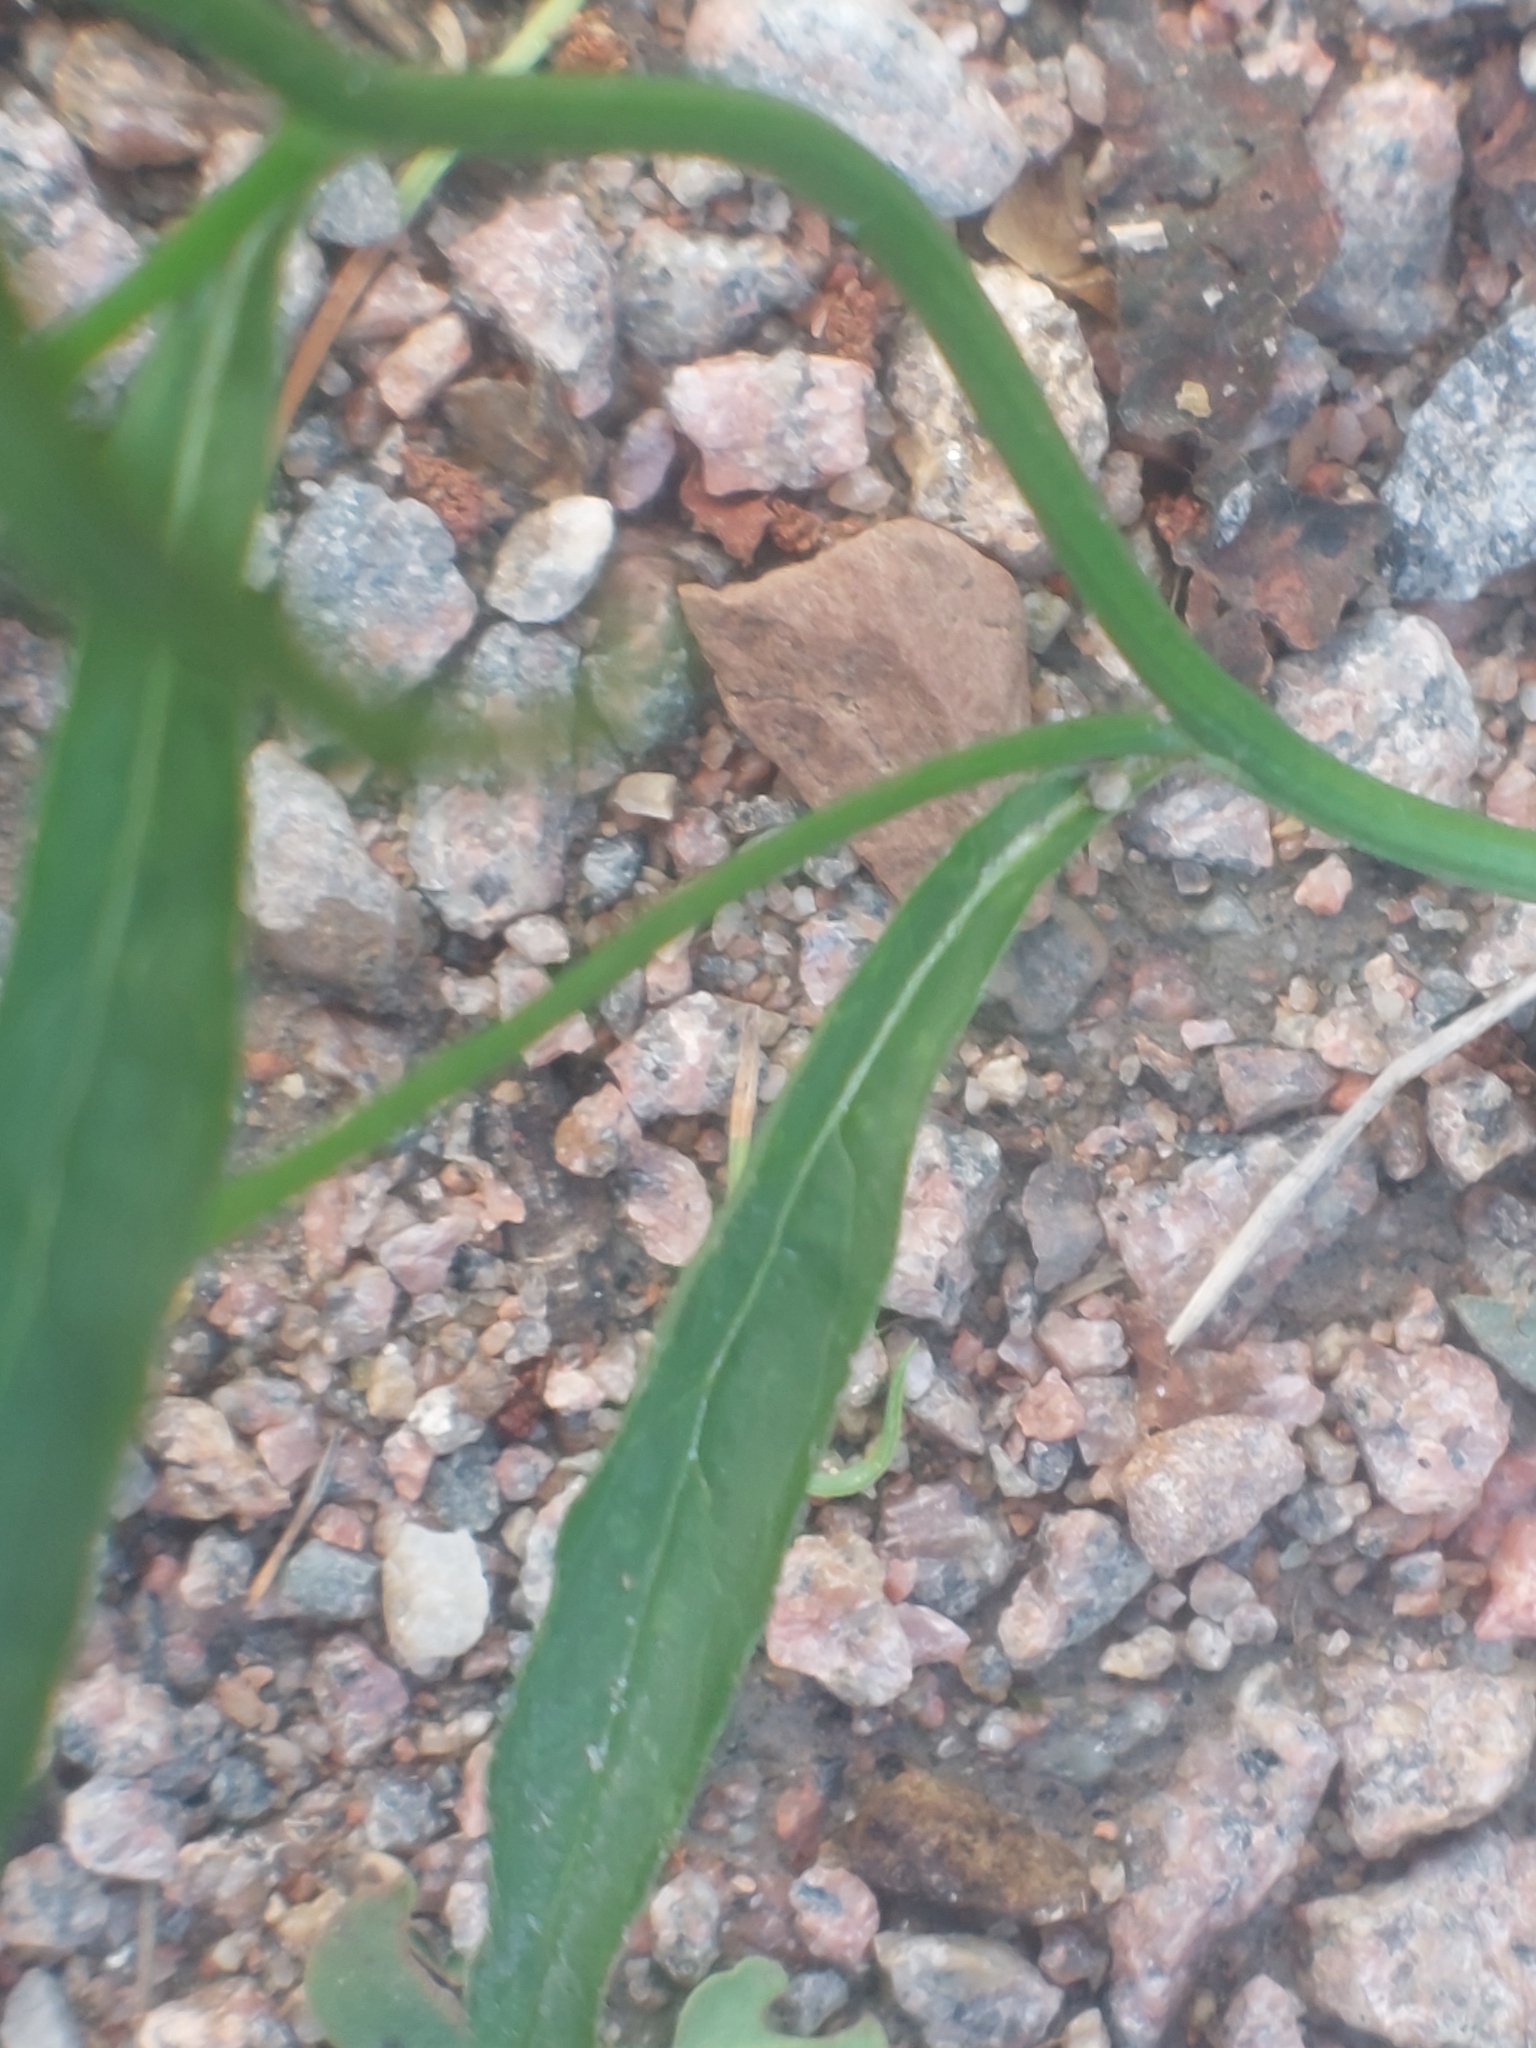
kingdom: Plantae
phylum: Tracheophyta
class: Magnoliopsida
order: Asterales
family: Asteraceae
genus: Lapsana
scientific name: Lapsana communis
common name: Nipplewort
